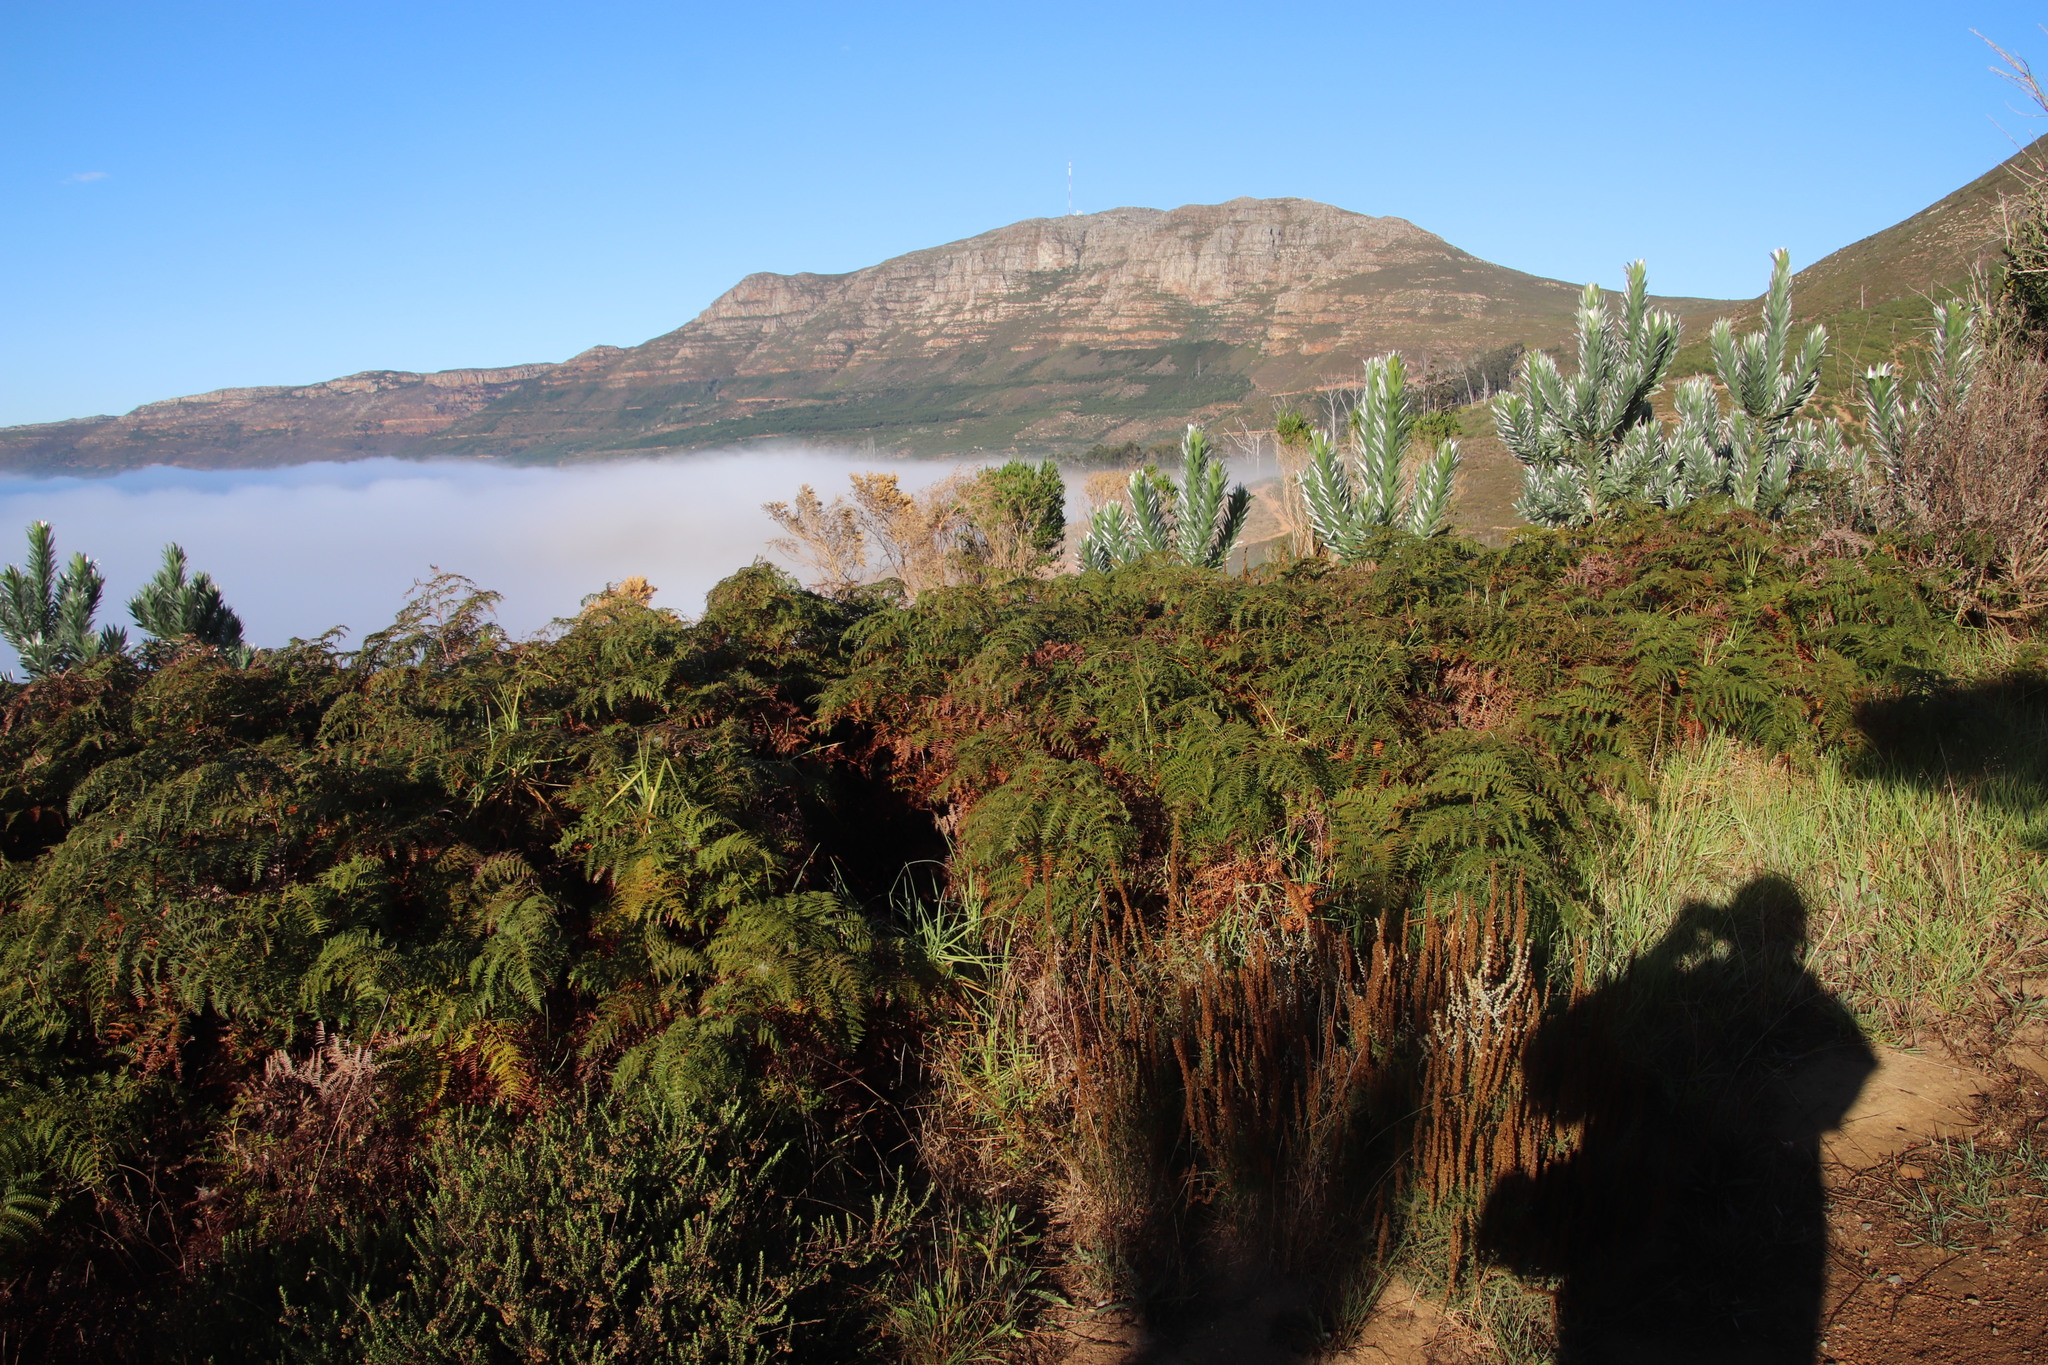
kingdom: Plantae
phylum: Tracheophyta
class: Polypodiopsida
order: Polypodiales
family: Dennstaedtiaceae
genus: Pteridium
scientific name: Pteridium aquilinum
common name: Bracken
